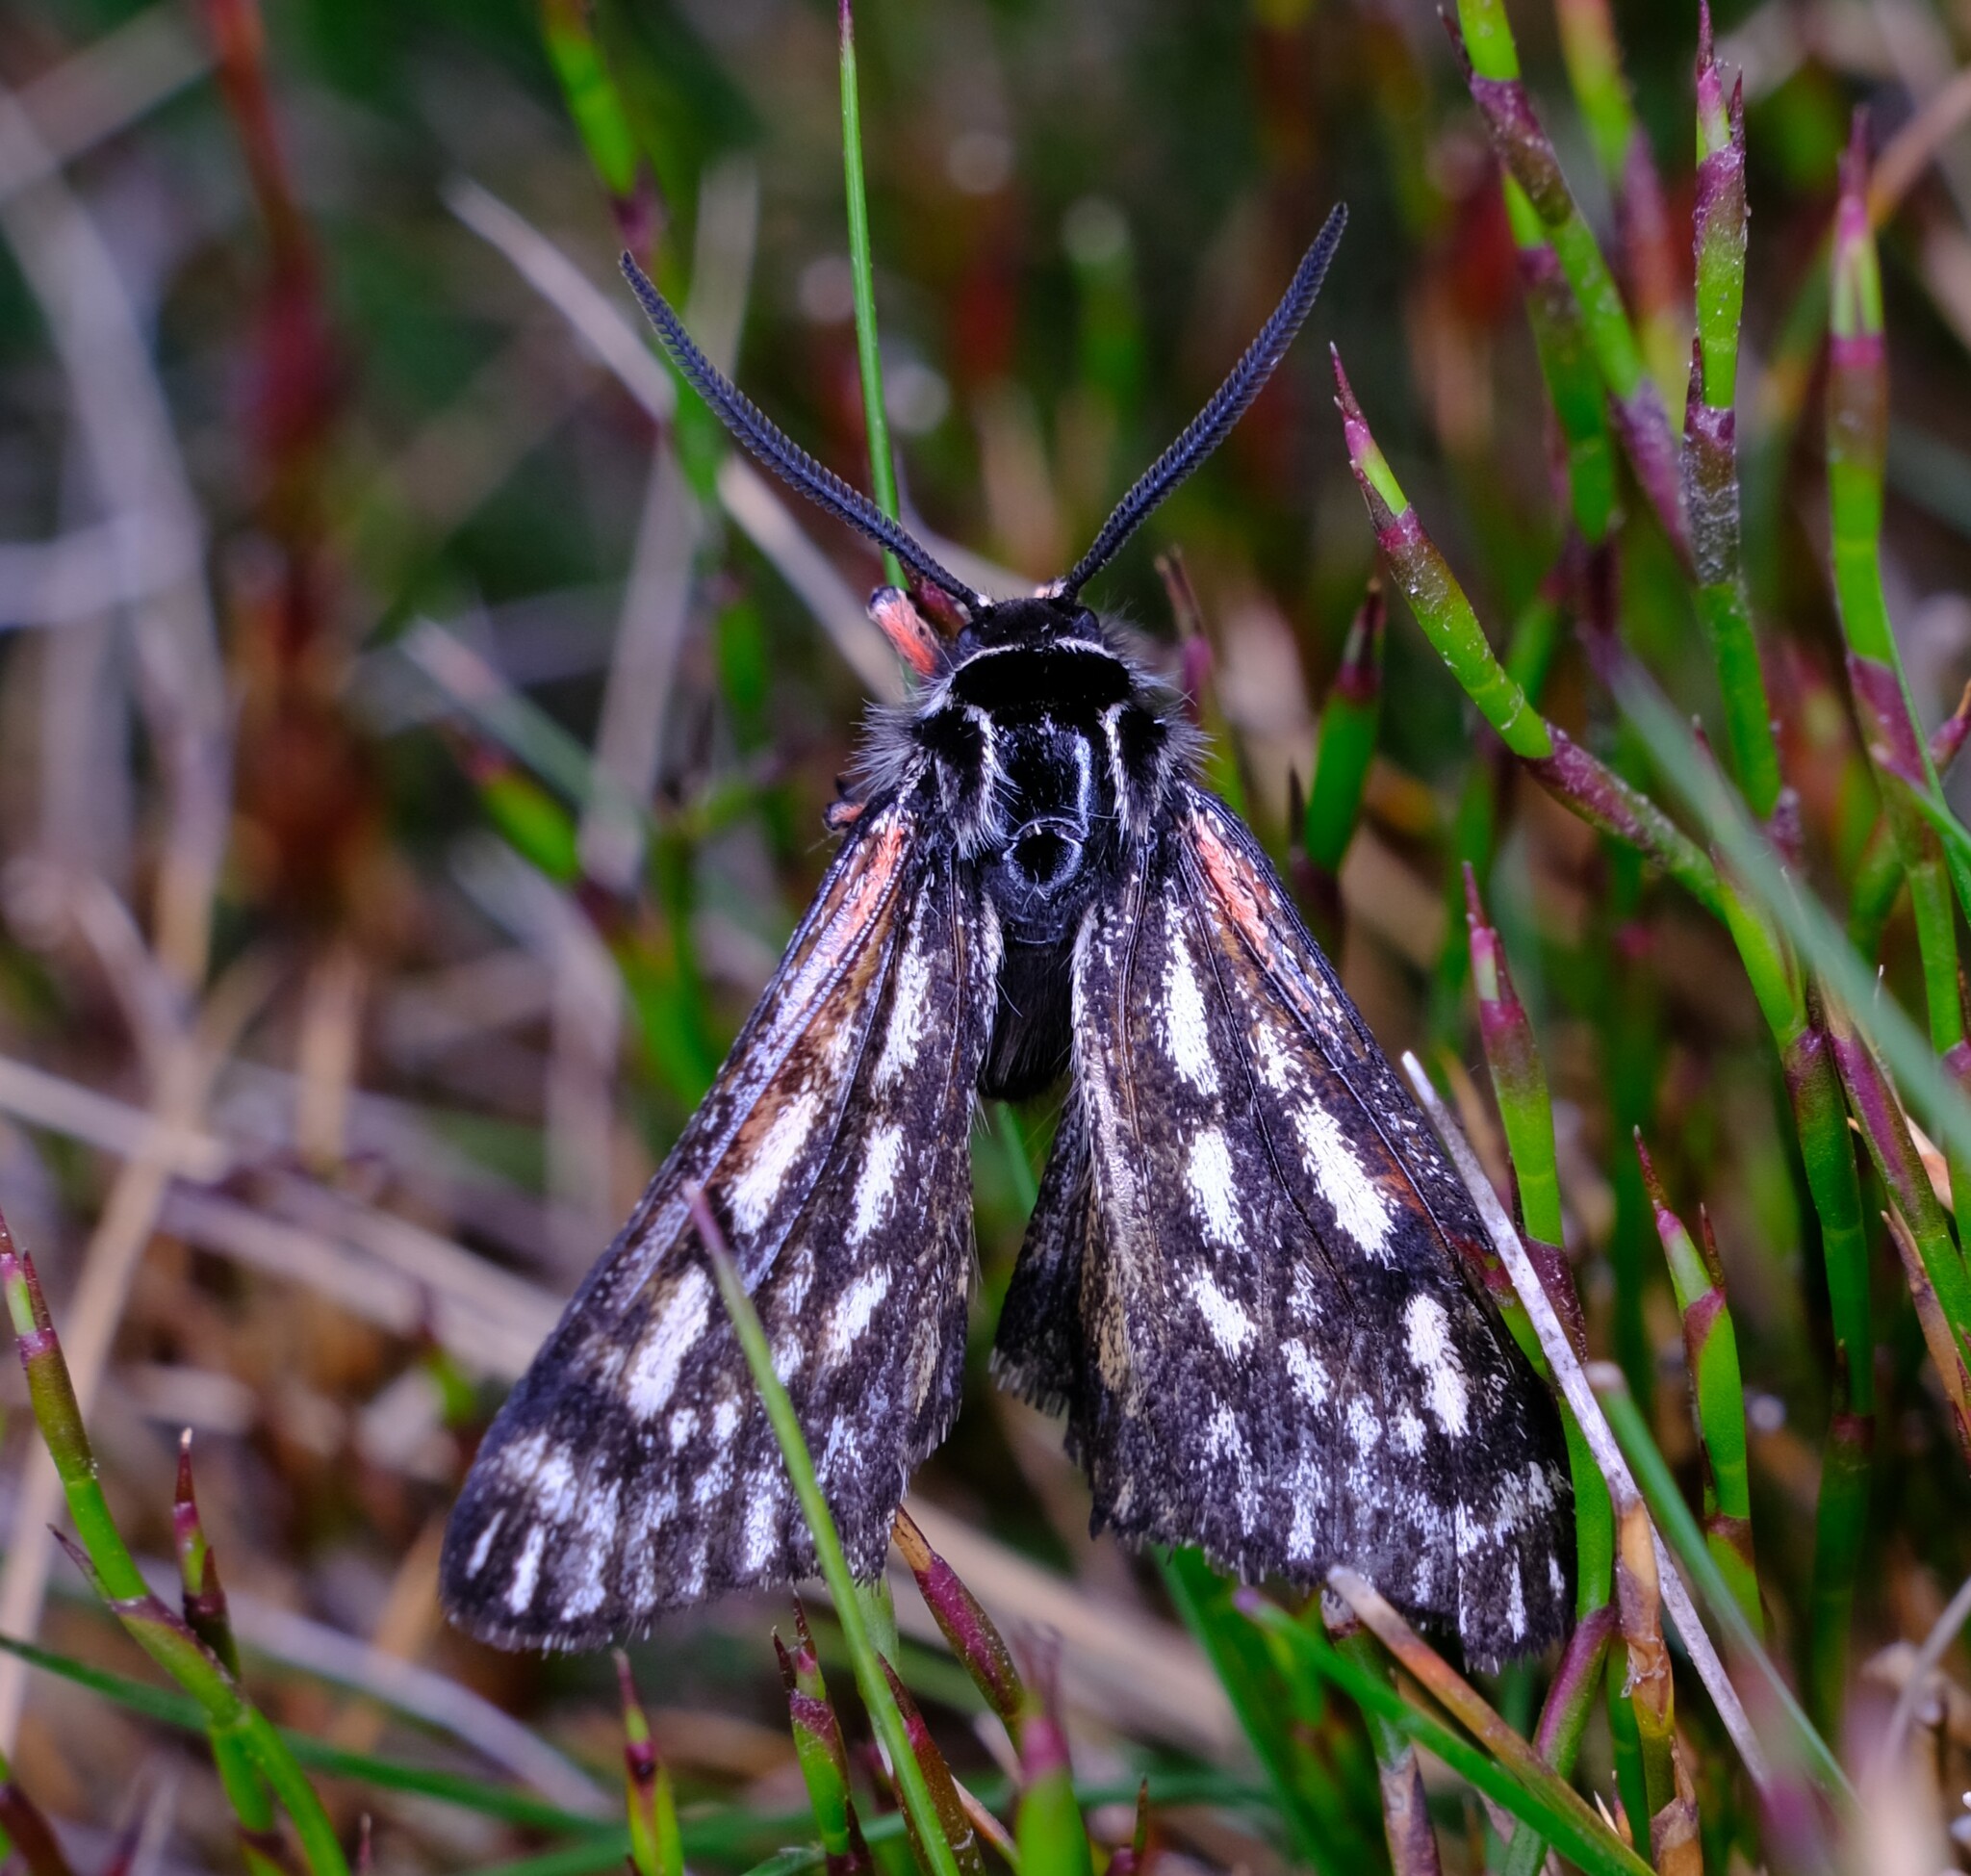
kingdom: Animalia
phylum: Arthropoda
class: Insecta
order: Lepidoptera
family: Erebidae
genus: Phaos
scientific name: Phaos interfixa
